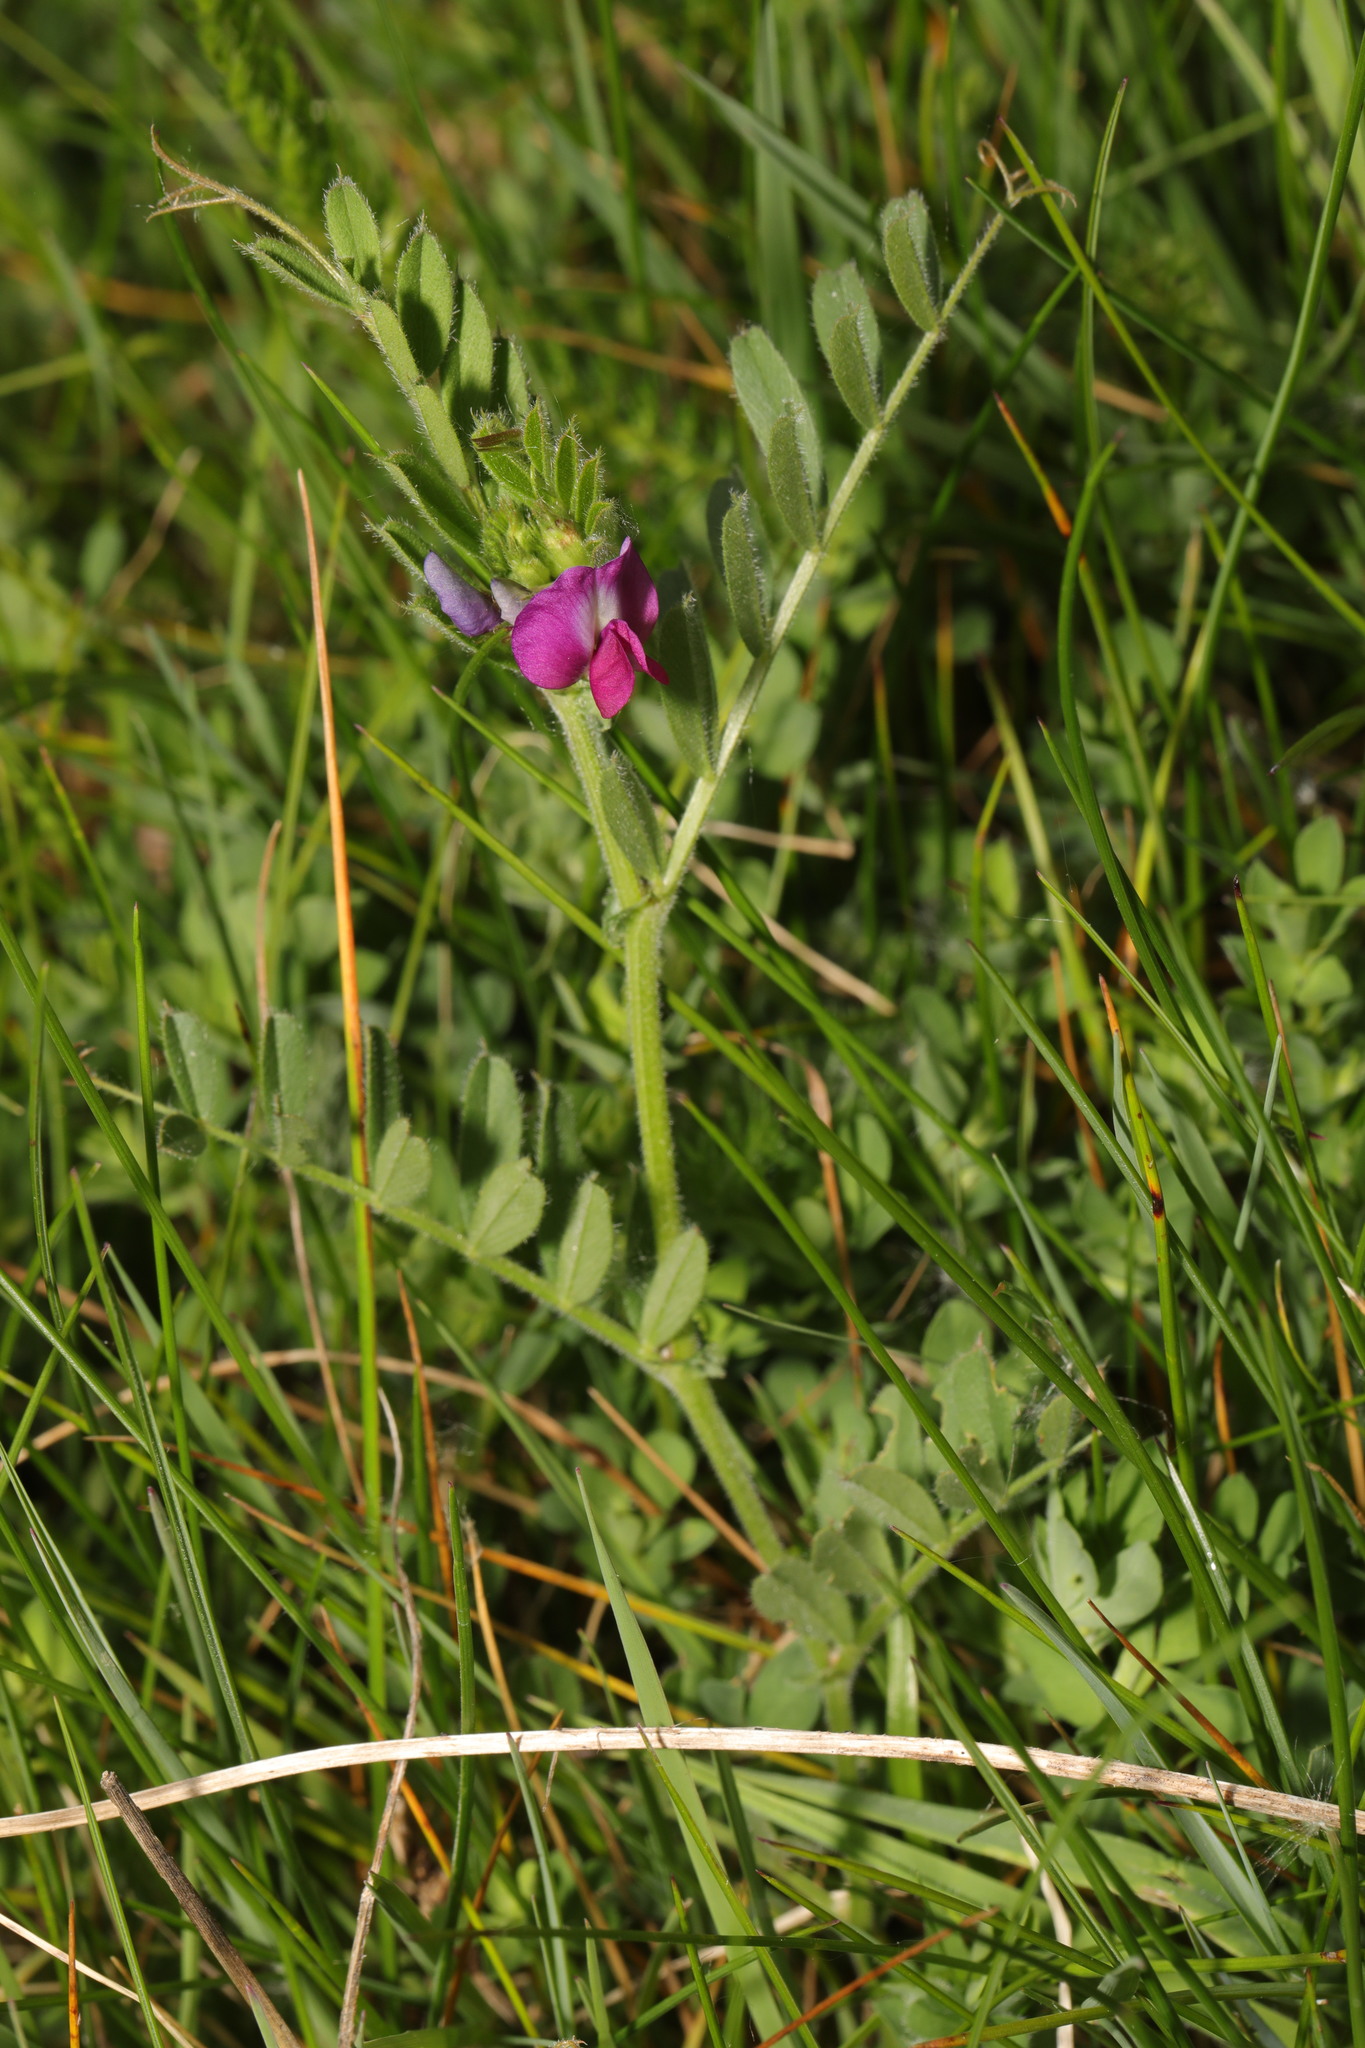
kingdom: Plantae
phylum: Tracheophyta
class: Magnoliopsida
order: Fabales
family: Fabaceae
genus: Vicia
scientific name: Vicia sativa
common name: Garden vetch
